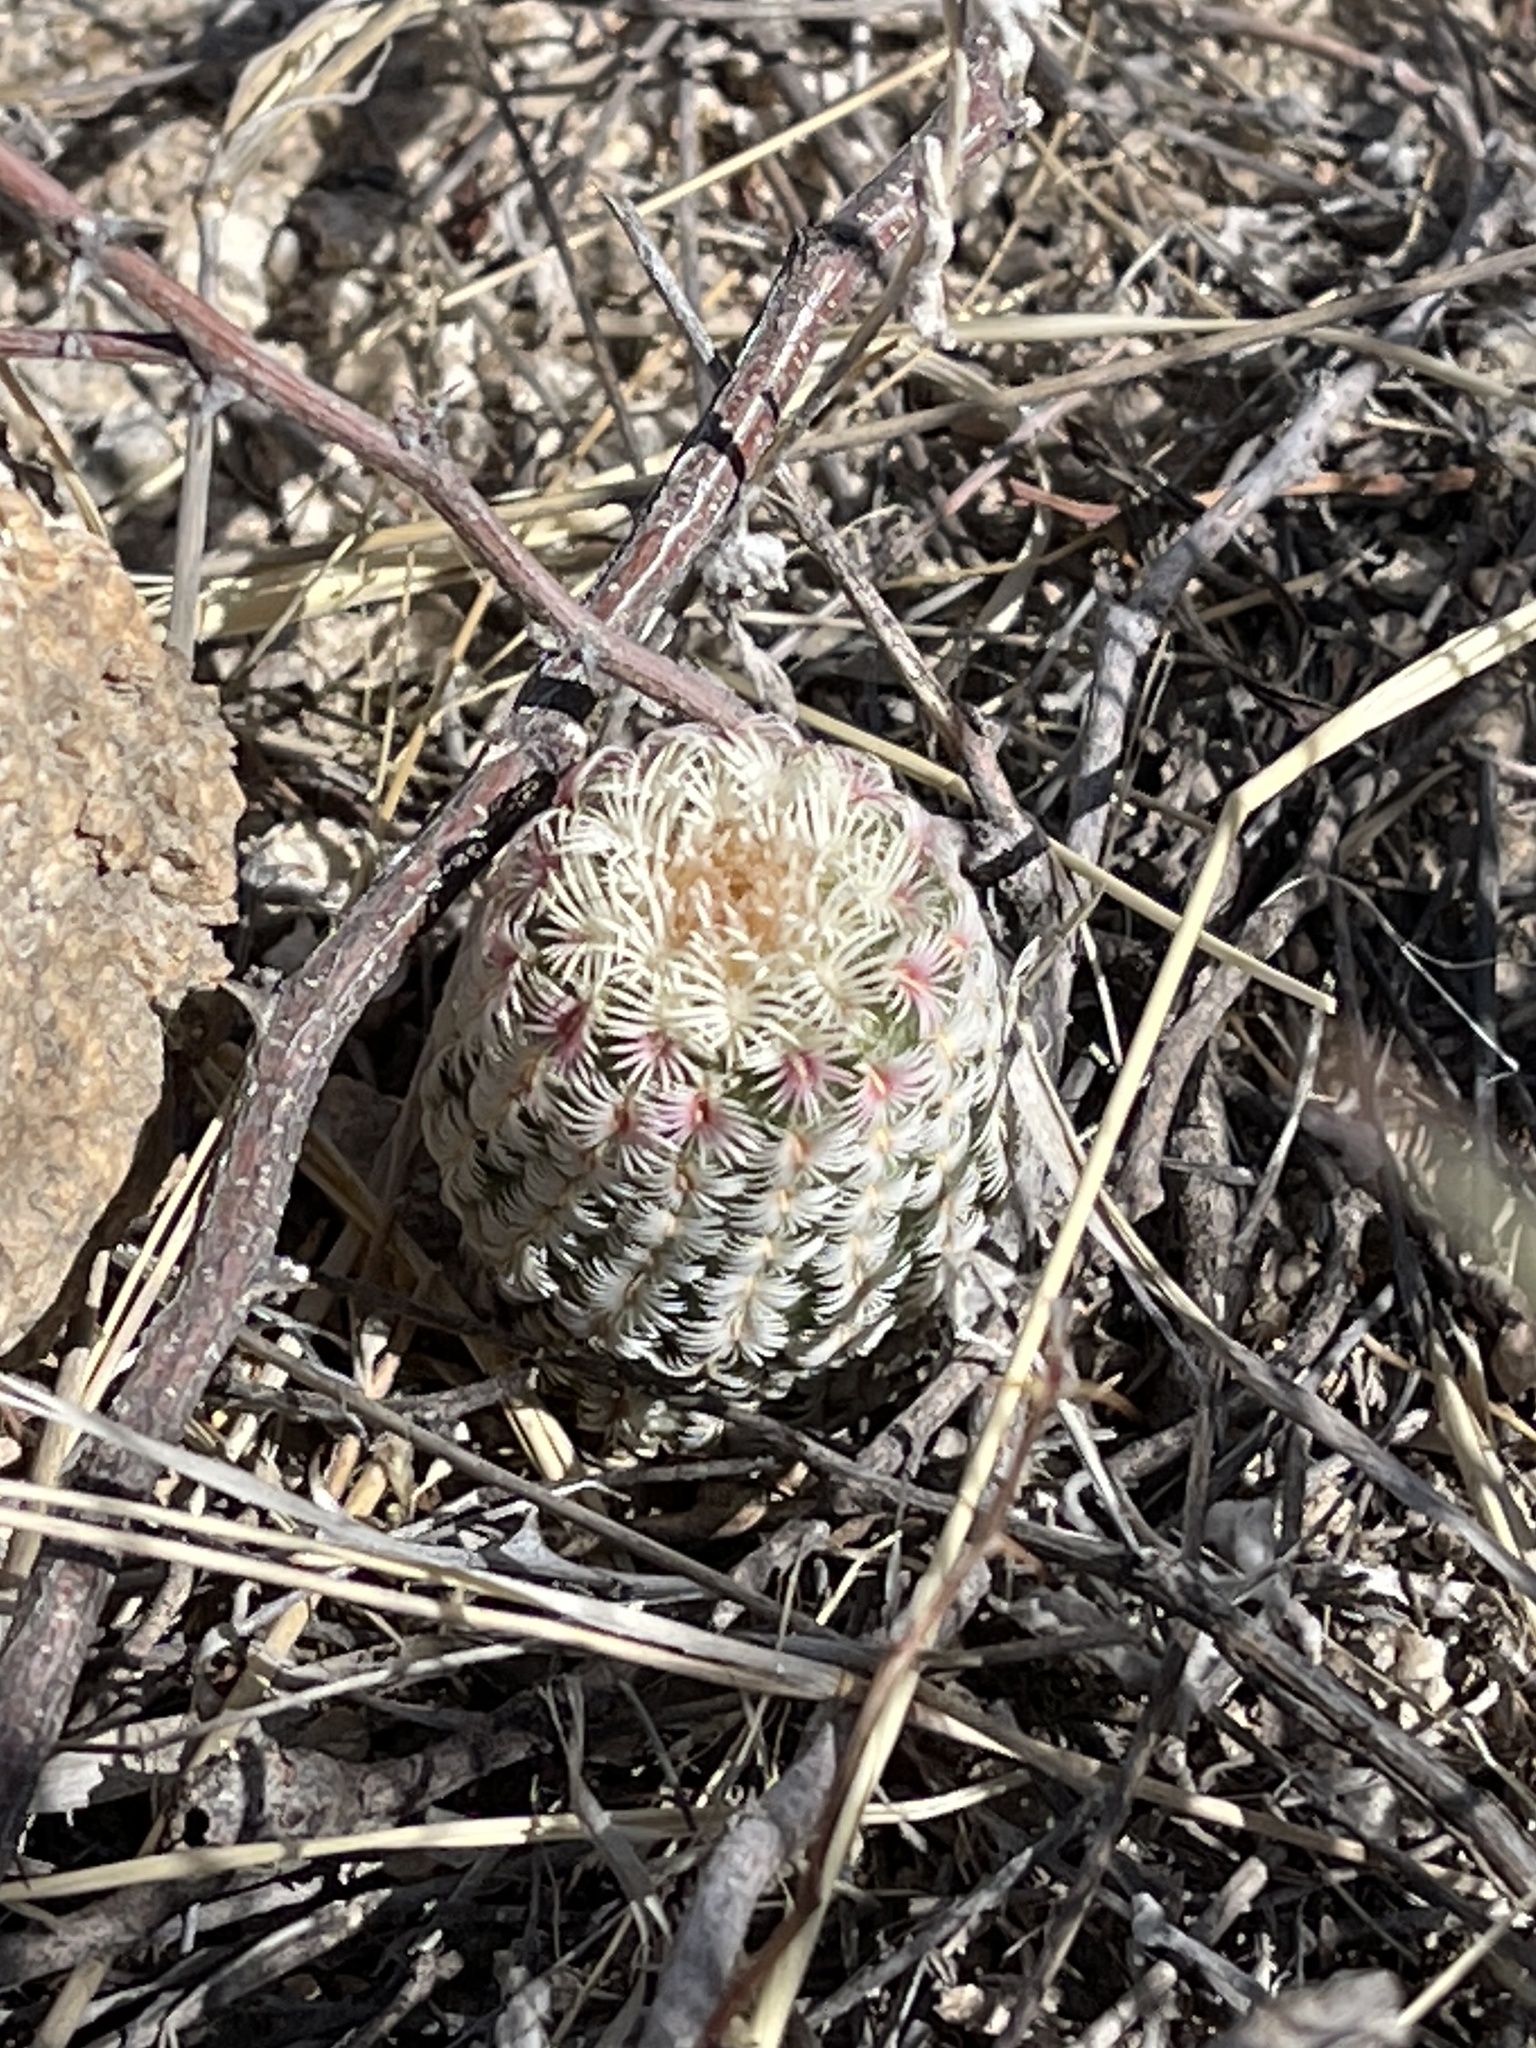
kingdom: Plantae
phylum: Tracheophyta
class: Magnoliopsida
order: Caryophyllales
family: Cactaceae
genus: Echinocereus
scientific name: Echinocereus rigidissimus
